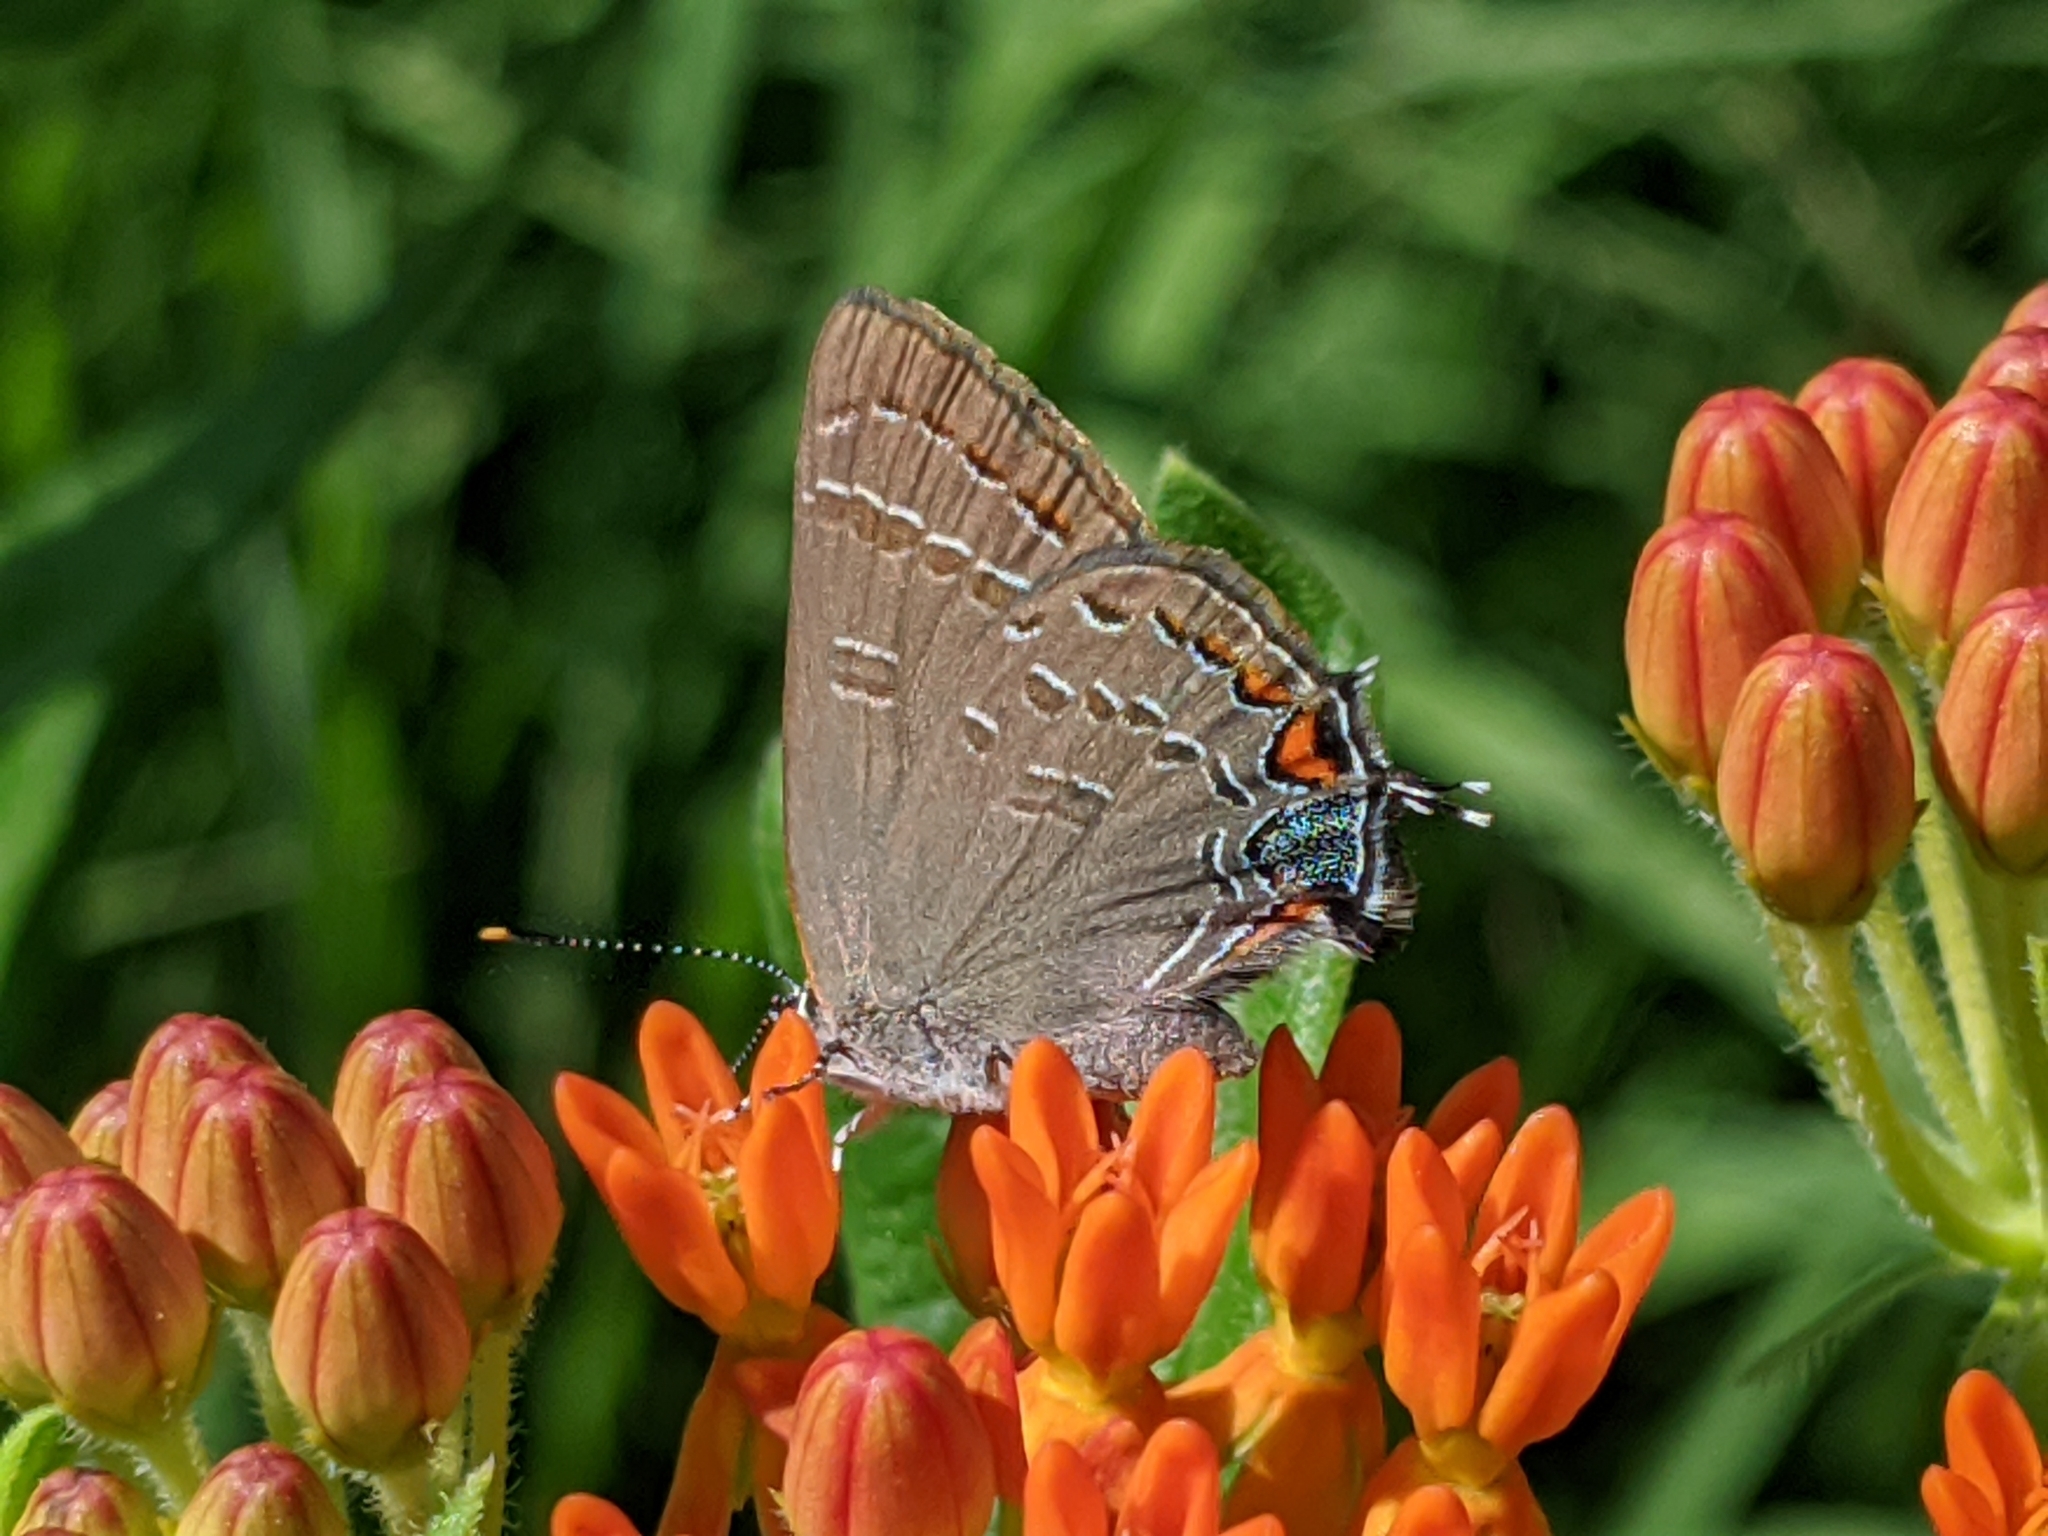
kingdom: Animalia
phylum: Arthropoda
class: Insecta
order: Lepidoptera
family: Lycaenidae
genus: Satyrium
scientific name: Satyrium calanus
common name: Banded hairstreak
